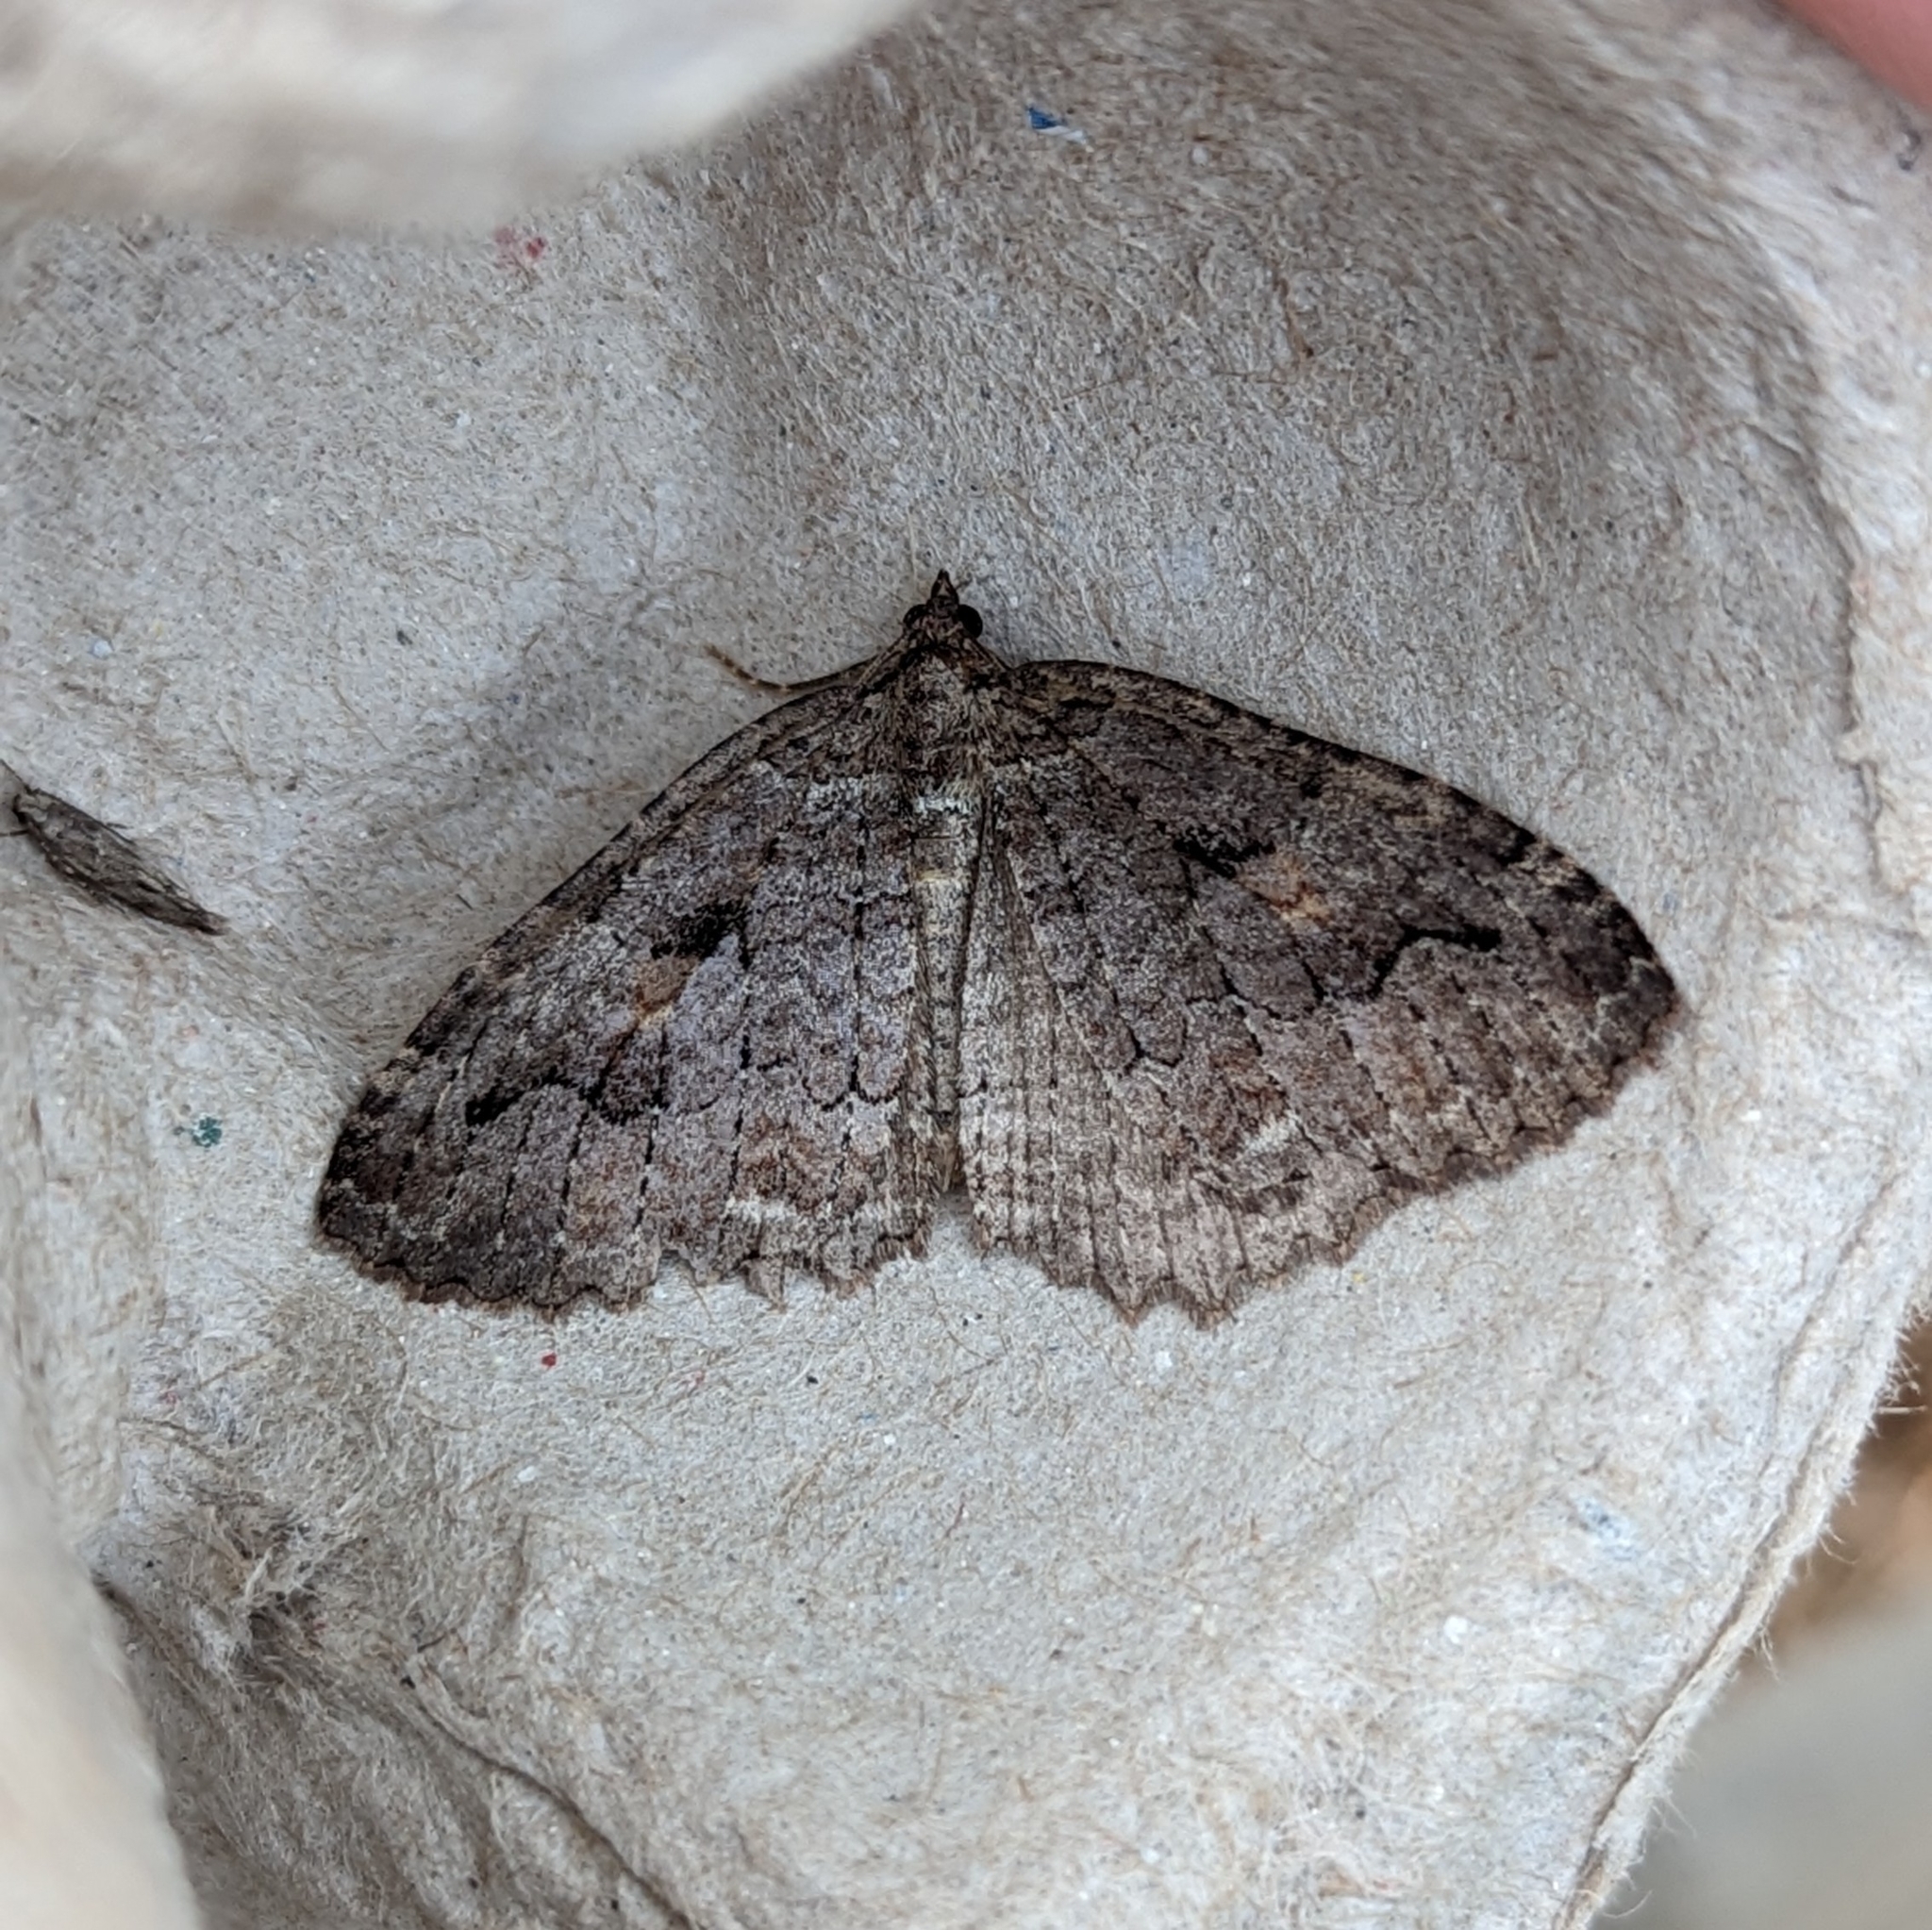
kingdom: Animalia
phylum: Arthropoda
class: Insecta
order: Lepidoptera
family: Geometridae
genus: Triphosa
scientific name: Triphosa haesitata
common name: Tissue moth
